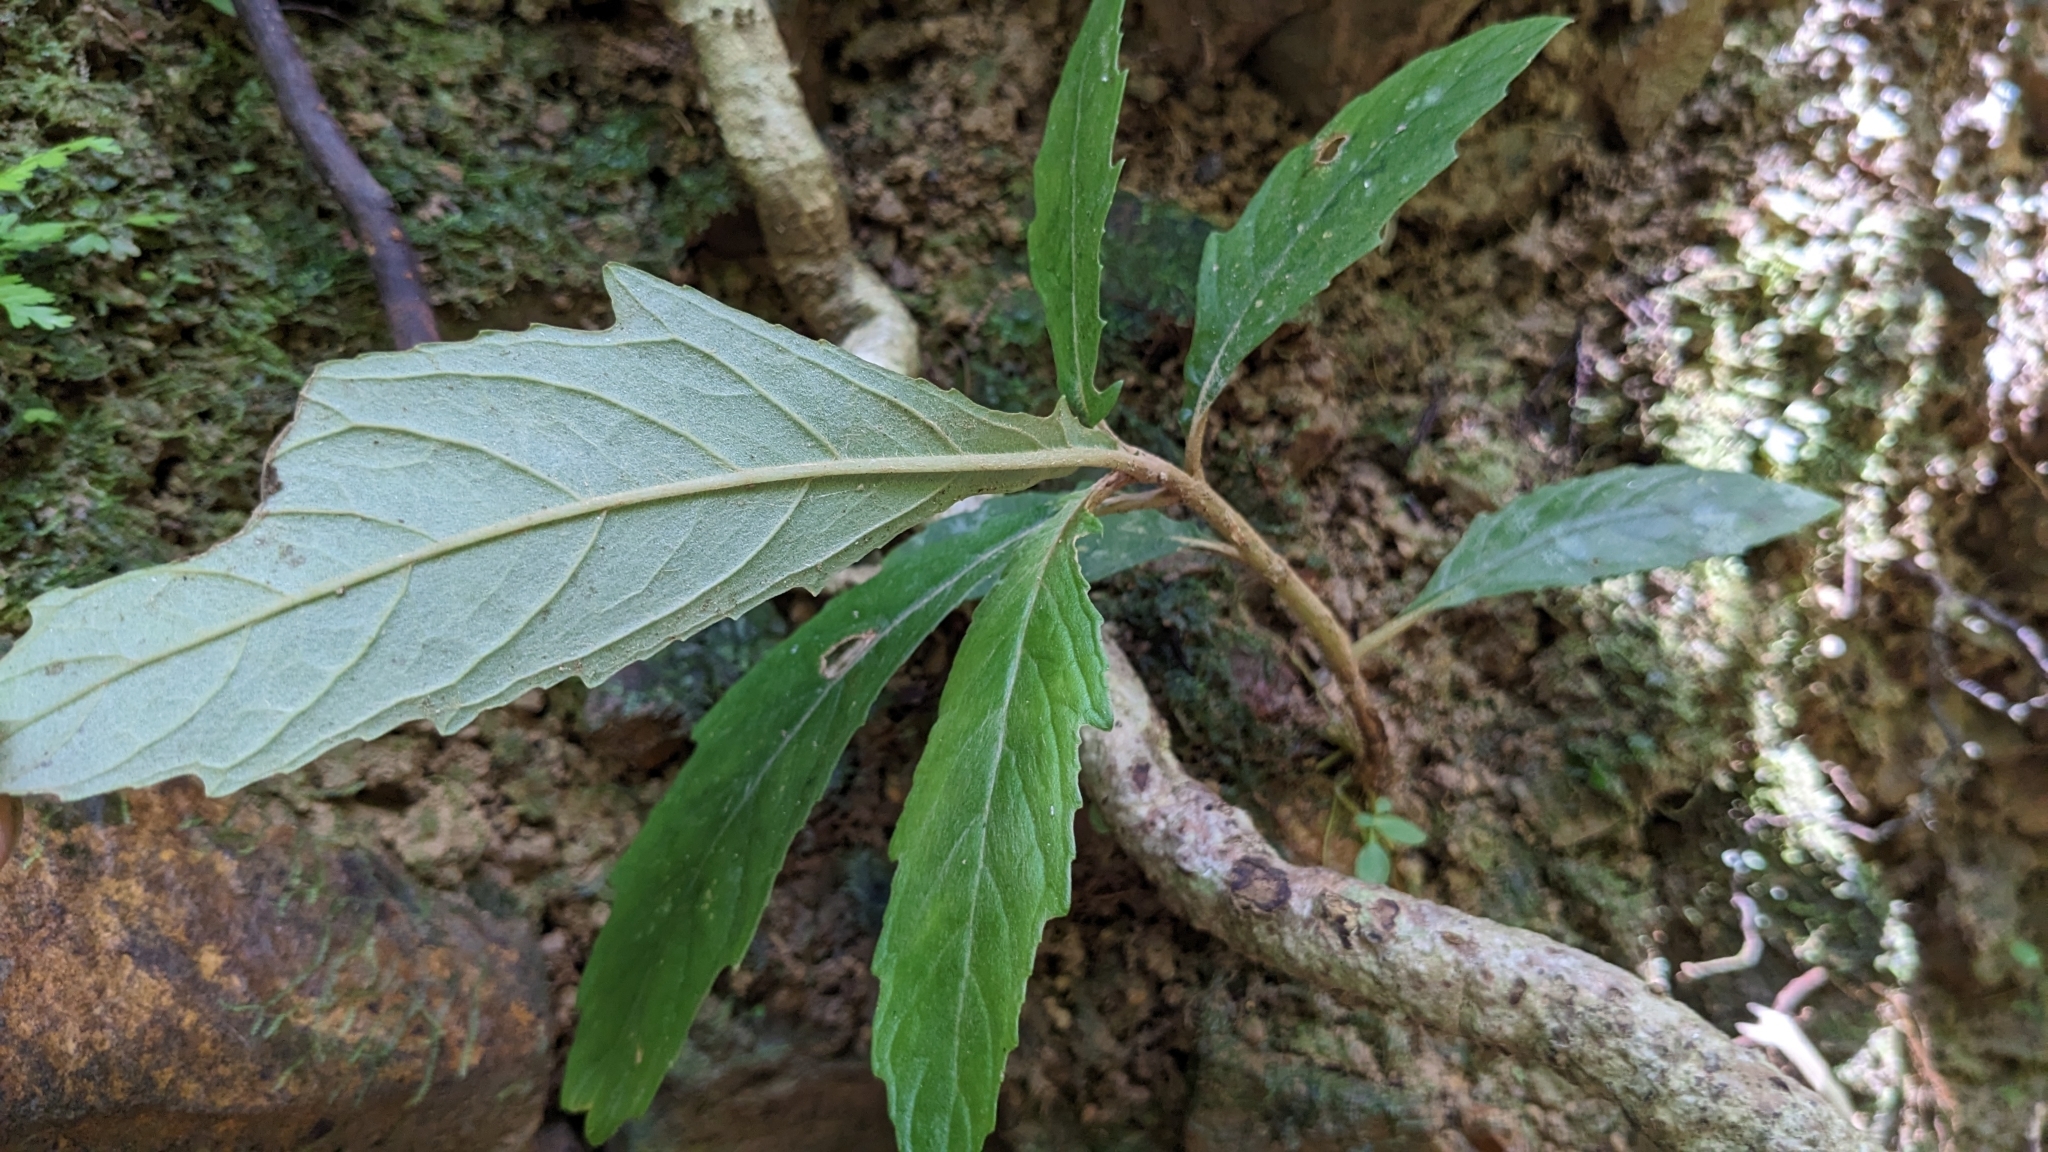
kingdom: Plantae
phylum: Tracheophyta
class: Magnoliopsida
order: Lamiales
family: Gesneriaceae
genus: Rhynchotechum
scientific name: Rhynchotechum discolor
